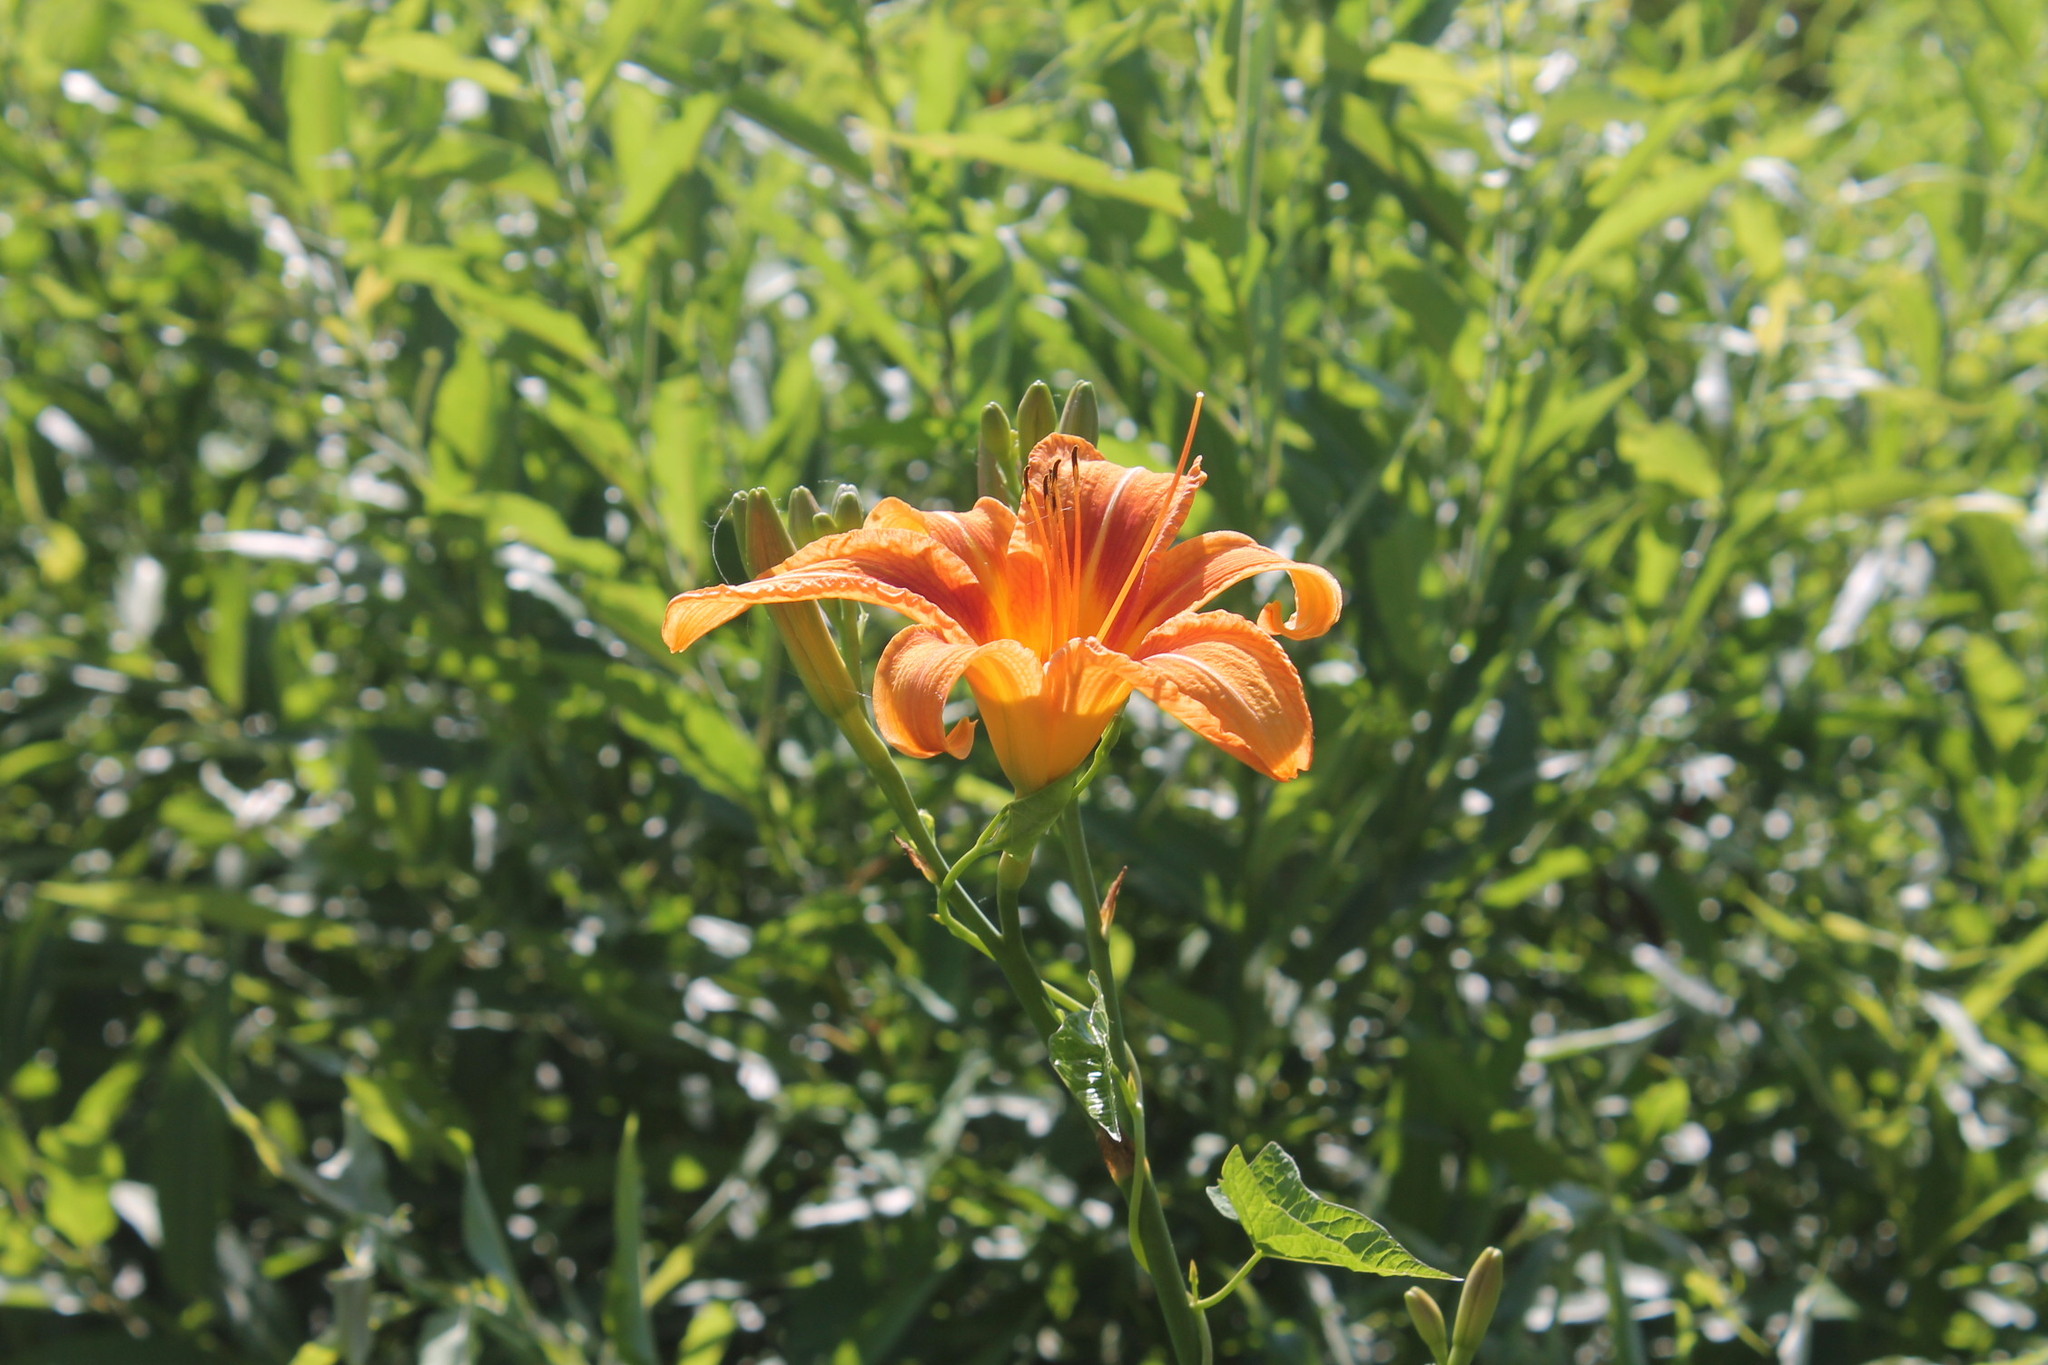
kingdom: Plantae
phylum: Tracheophyta
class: Liliopsida
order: Asparagales
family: Asphodelaceae
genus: Hemerocallis
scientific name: Hemerocallis fulva
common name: Orange day-lily
